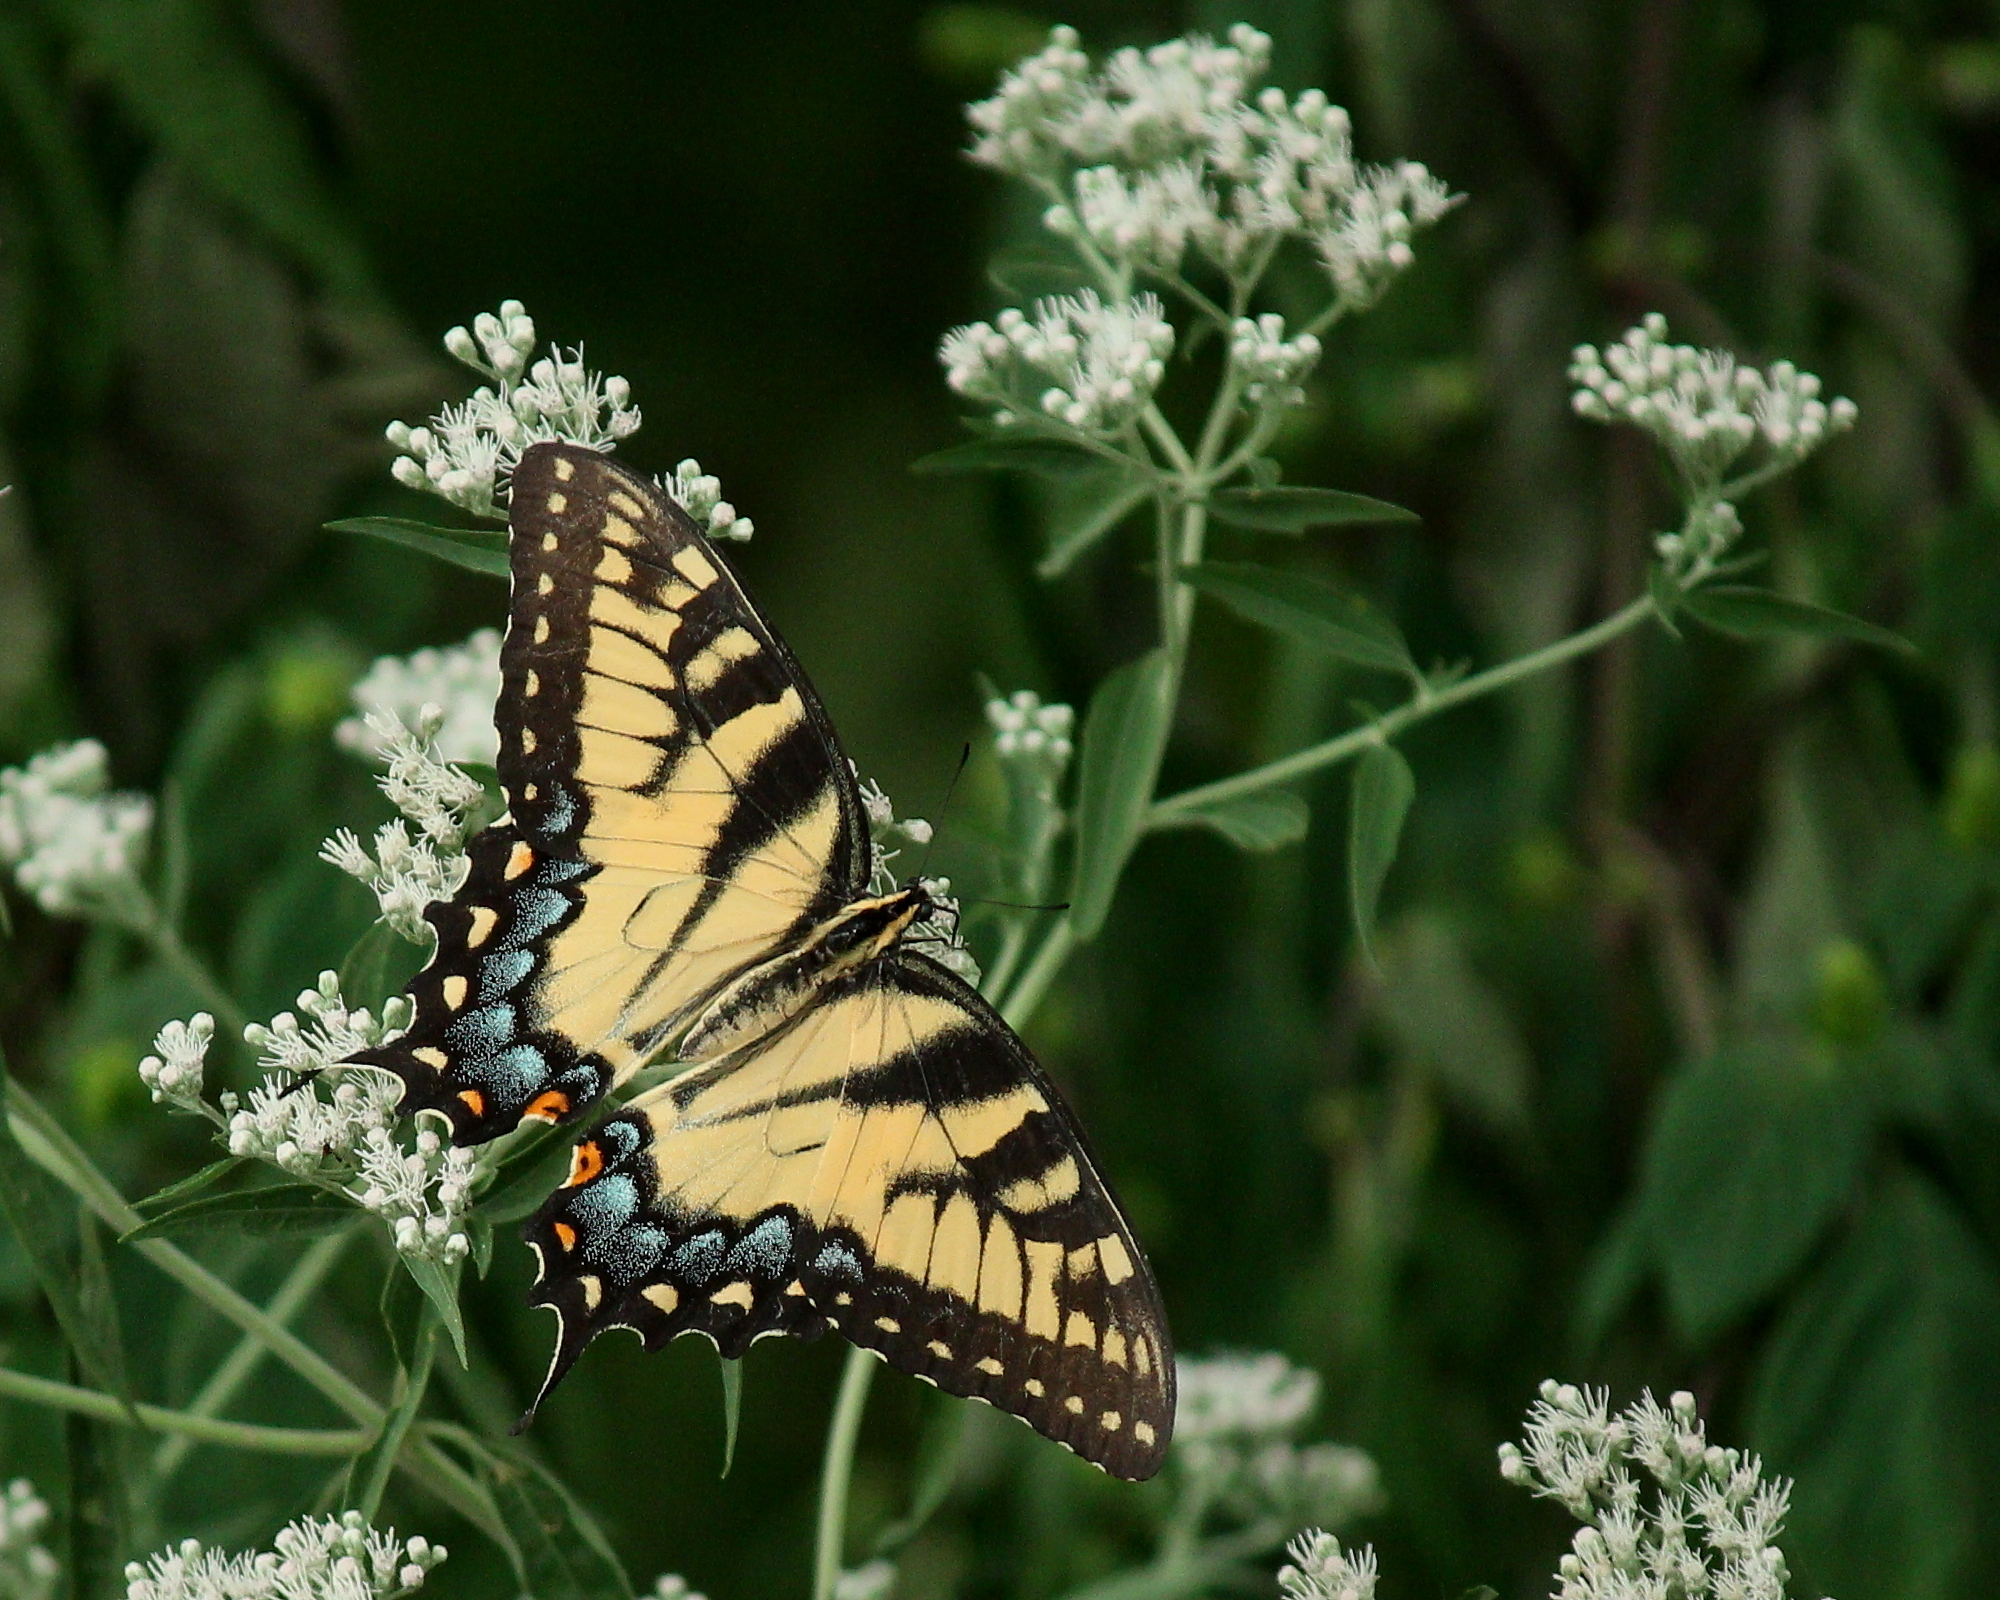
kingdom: Animalia
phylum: Arthropoda
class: Insecta
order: Lepidoptera
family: Papilionidae
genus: Papilio
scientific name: Papilio glaucus
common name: Tiger swallowtail
